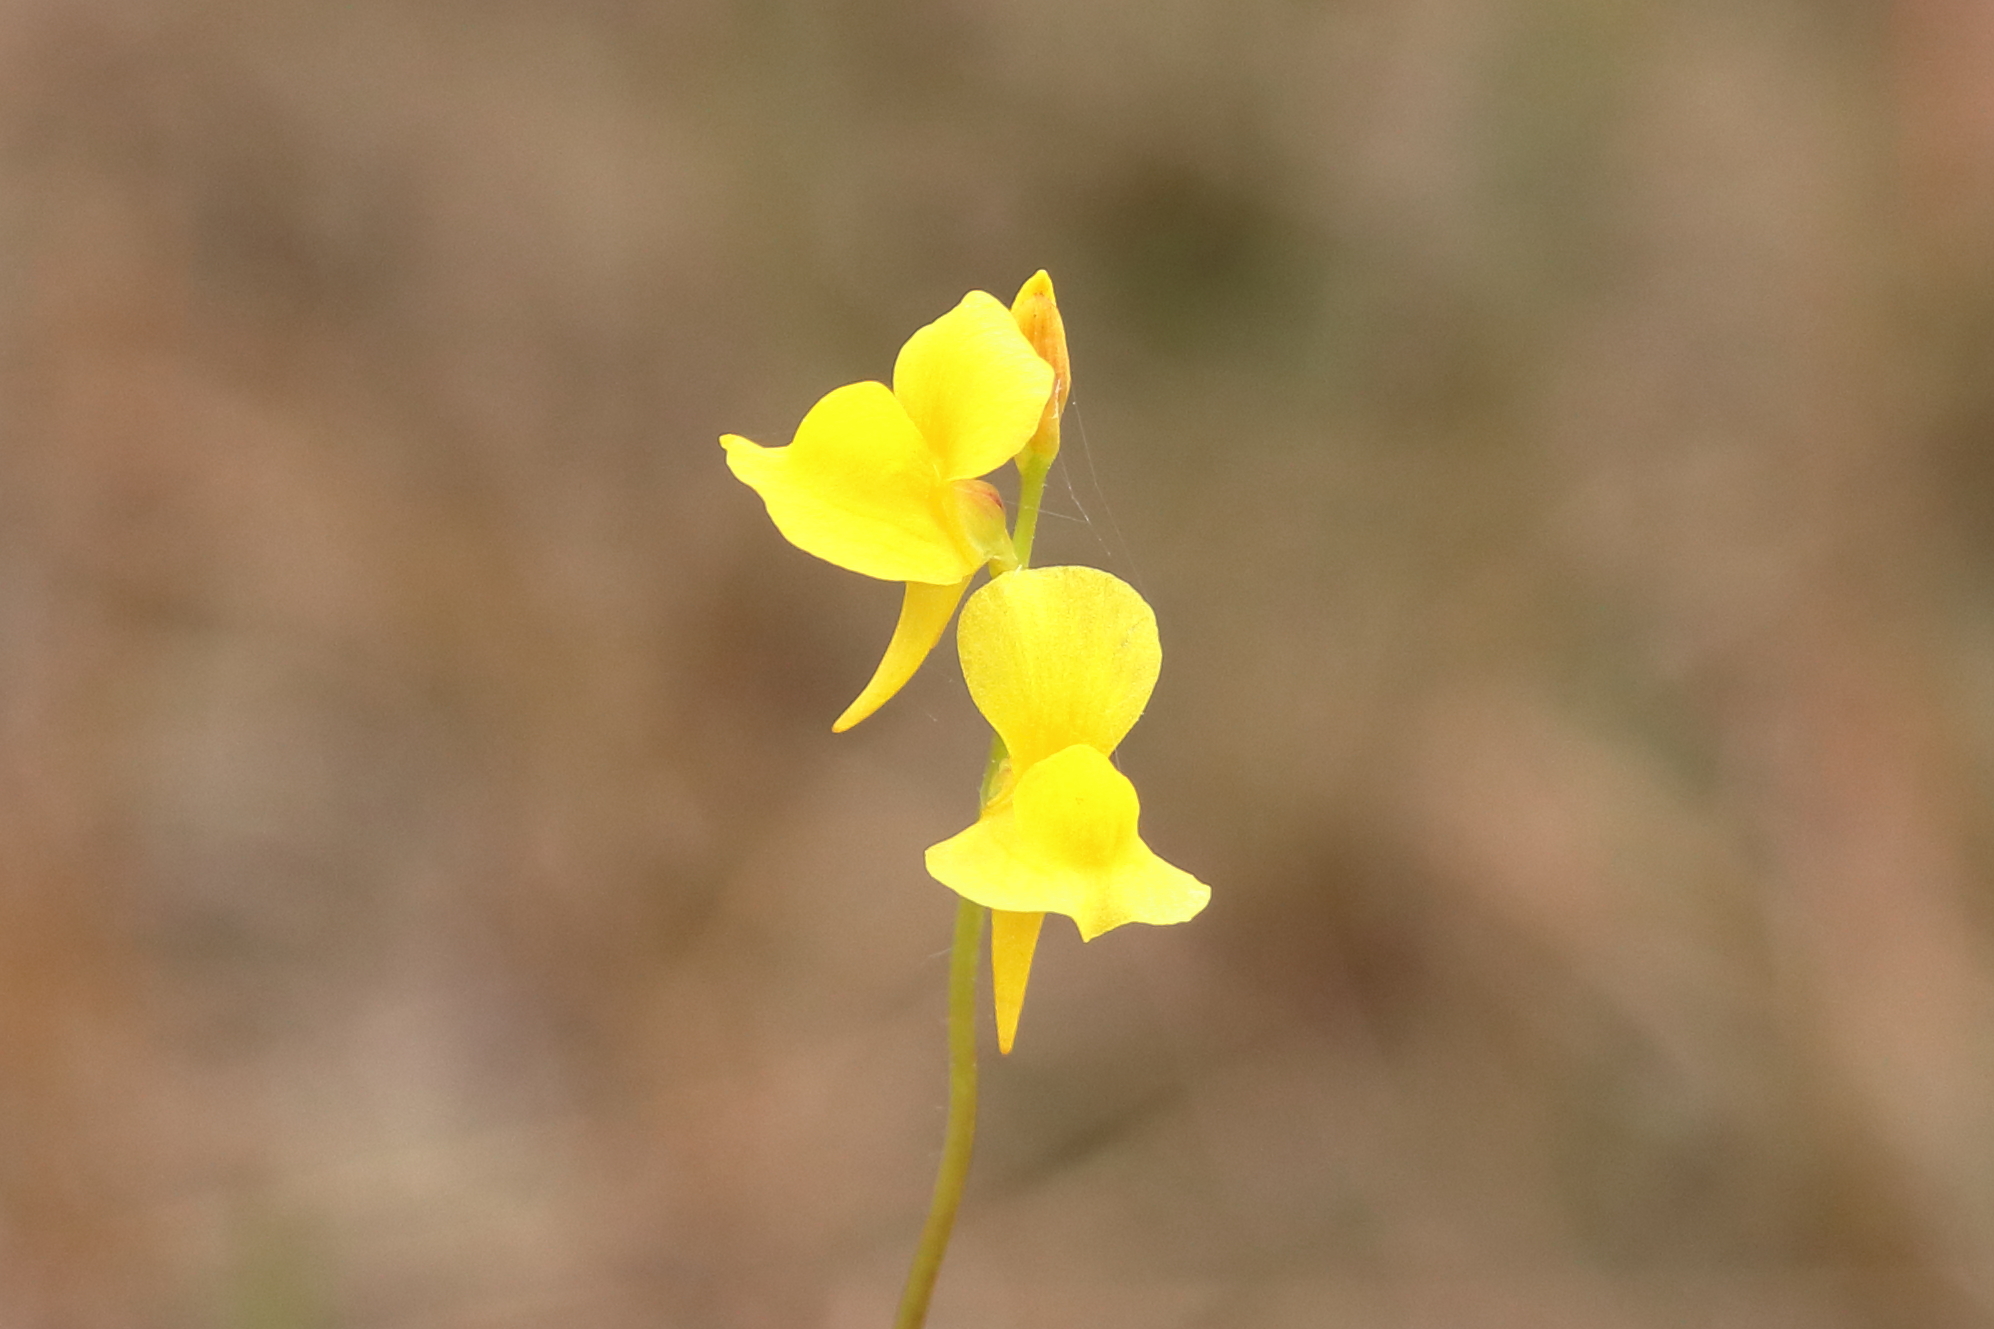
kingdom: Plantae
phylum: Tracheophyta
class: Magnoliopsida
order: Lamiales
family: Lentibulariaceae
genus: Utricularia
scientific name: Utricularia cornuta
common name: Horned bladderwort
